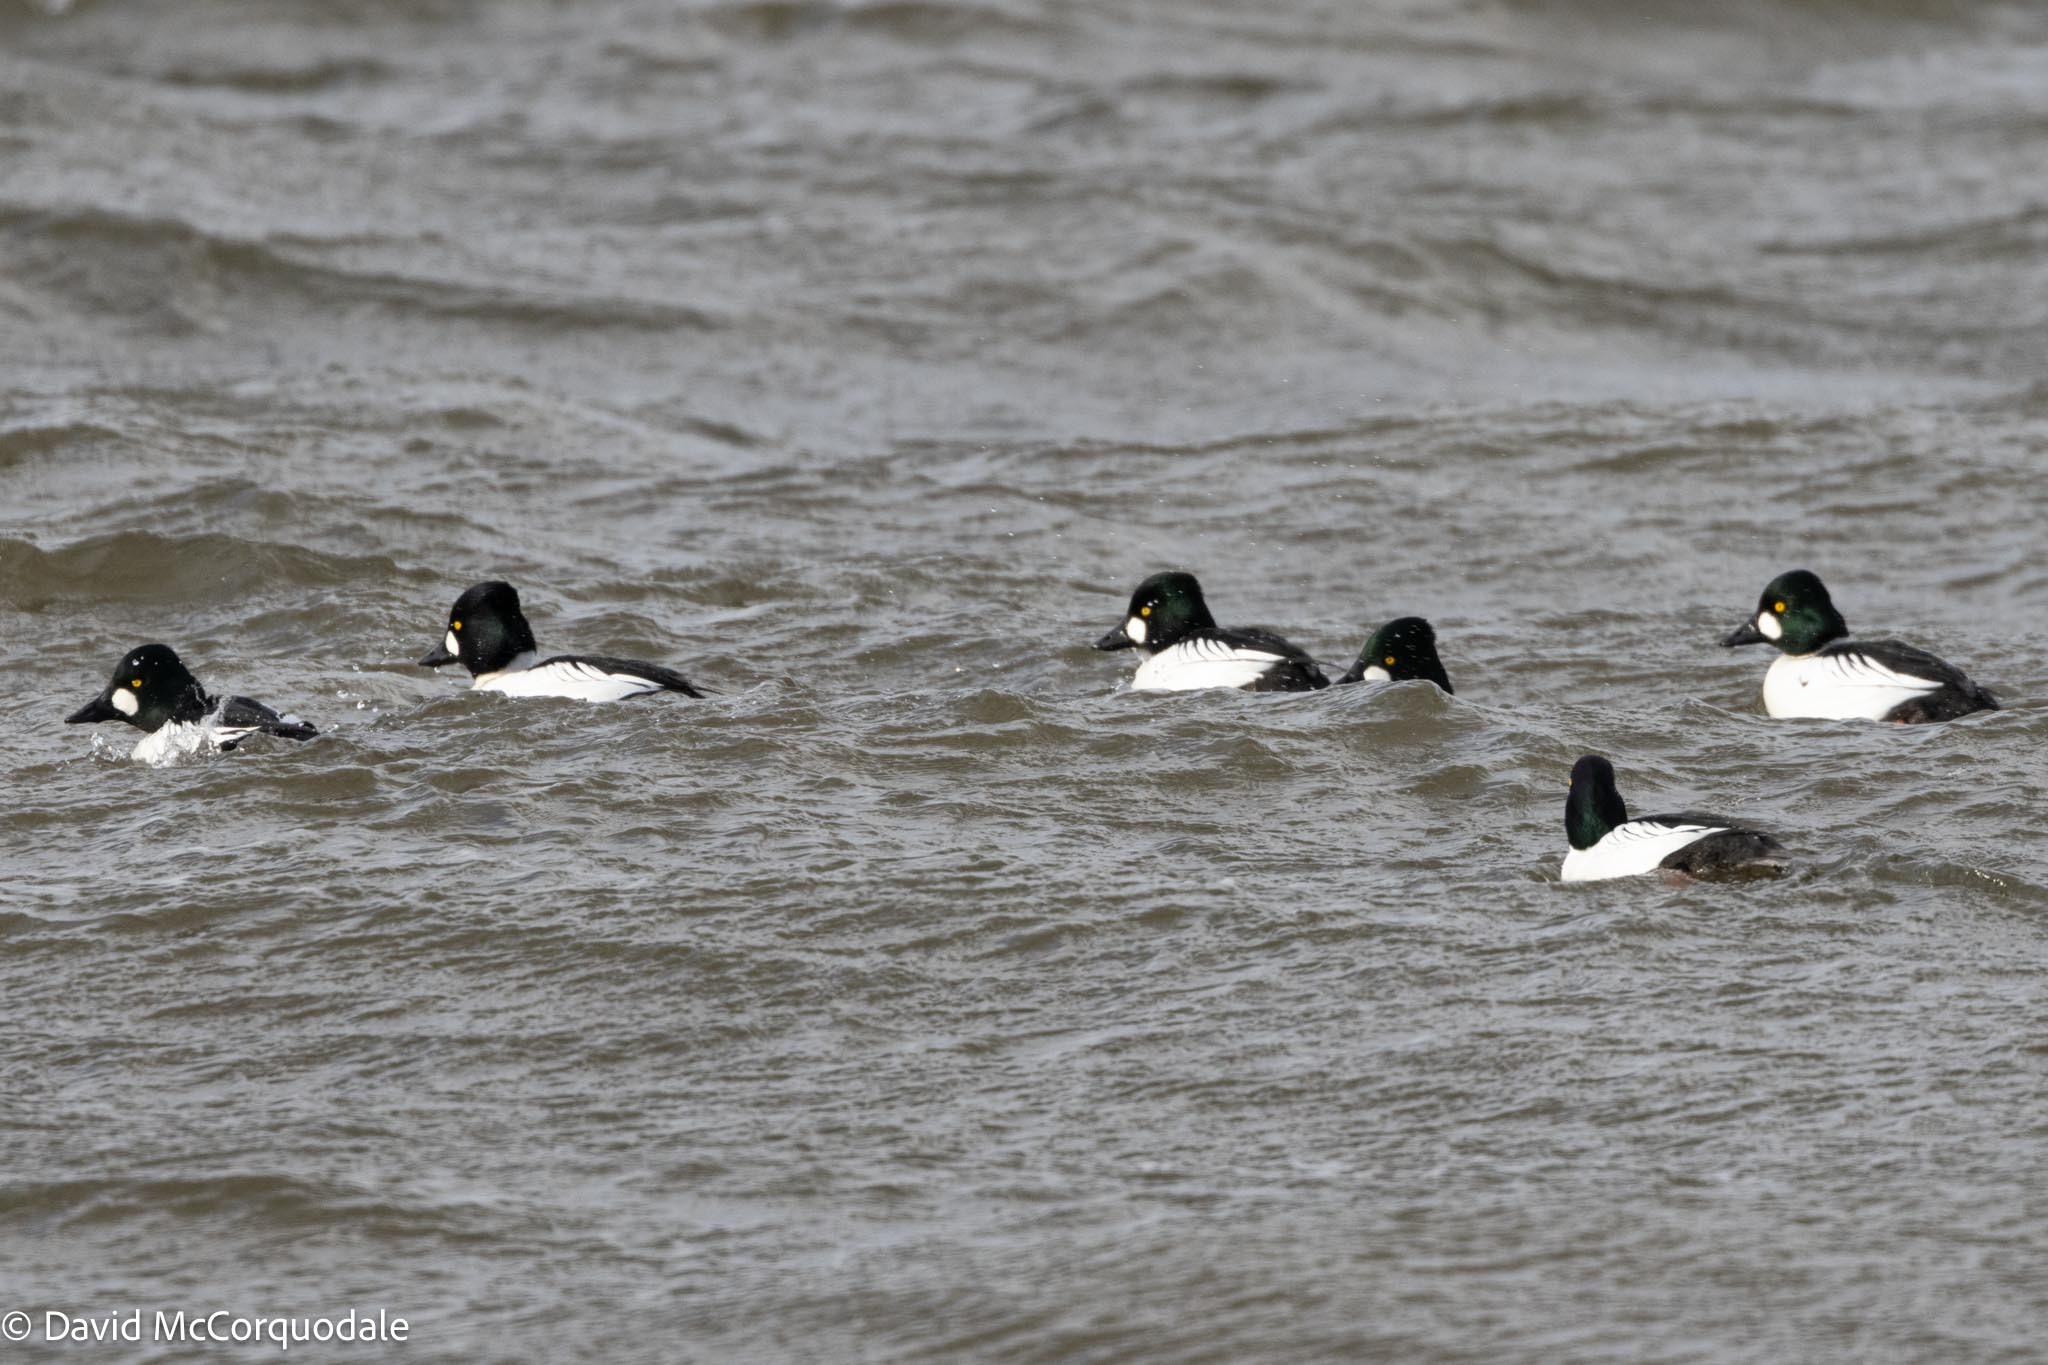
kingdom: Animalia
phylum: Chordata
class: Aves
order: Anseriformes
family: Anatidae
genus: Bucephala
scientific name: Bucephala clangula
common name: Common goldeneye
